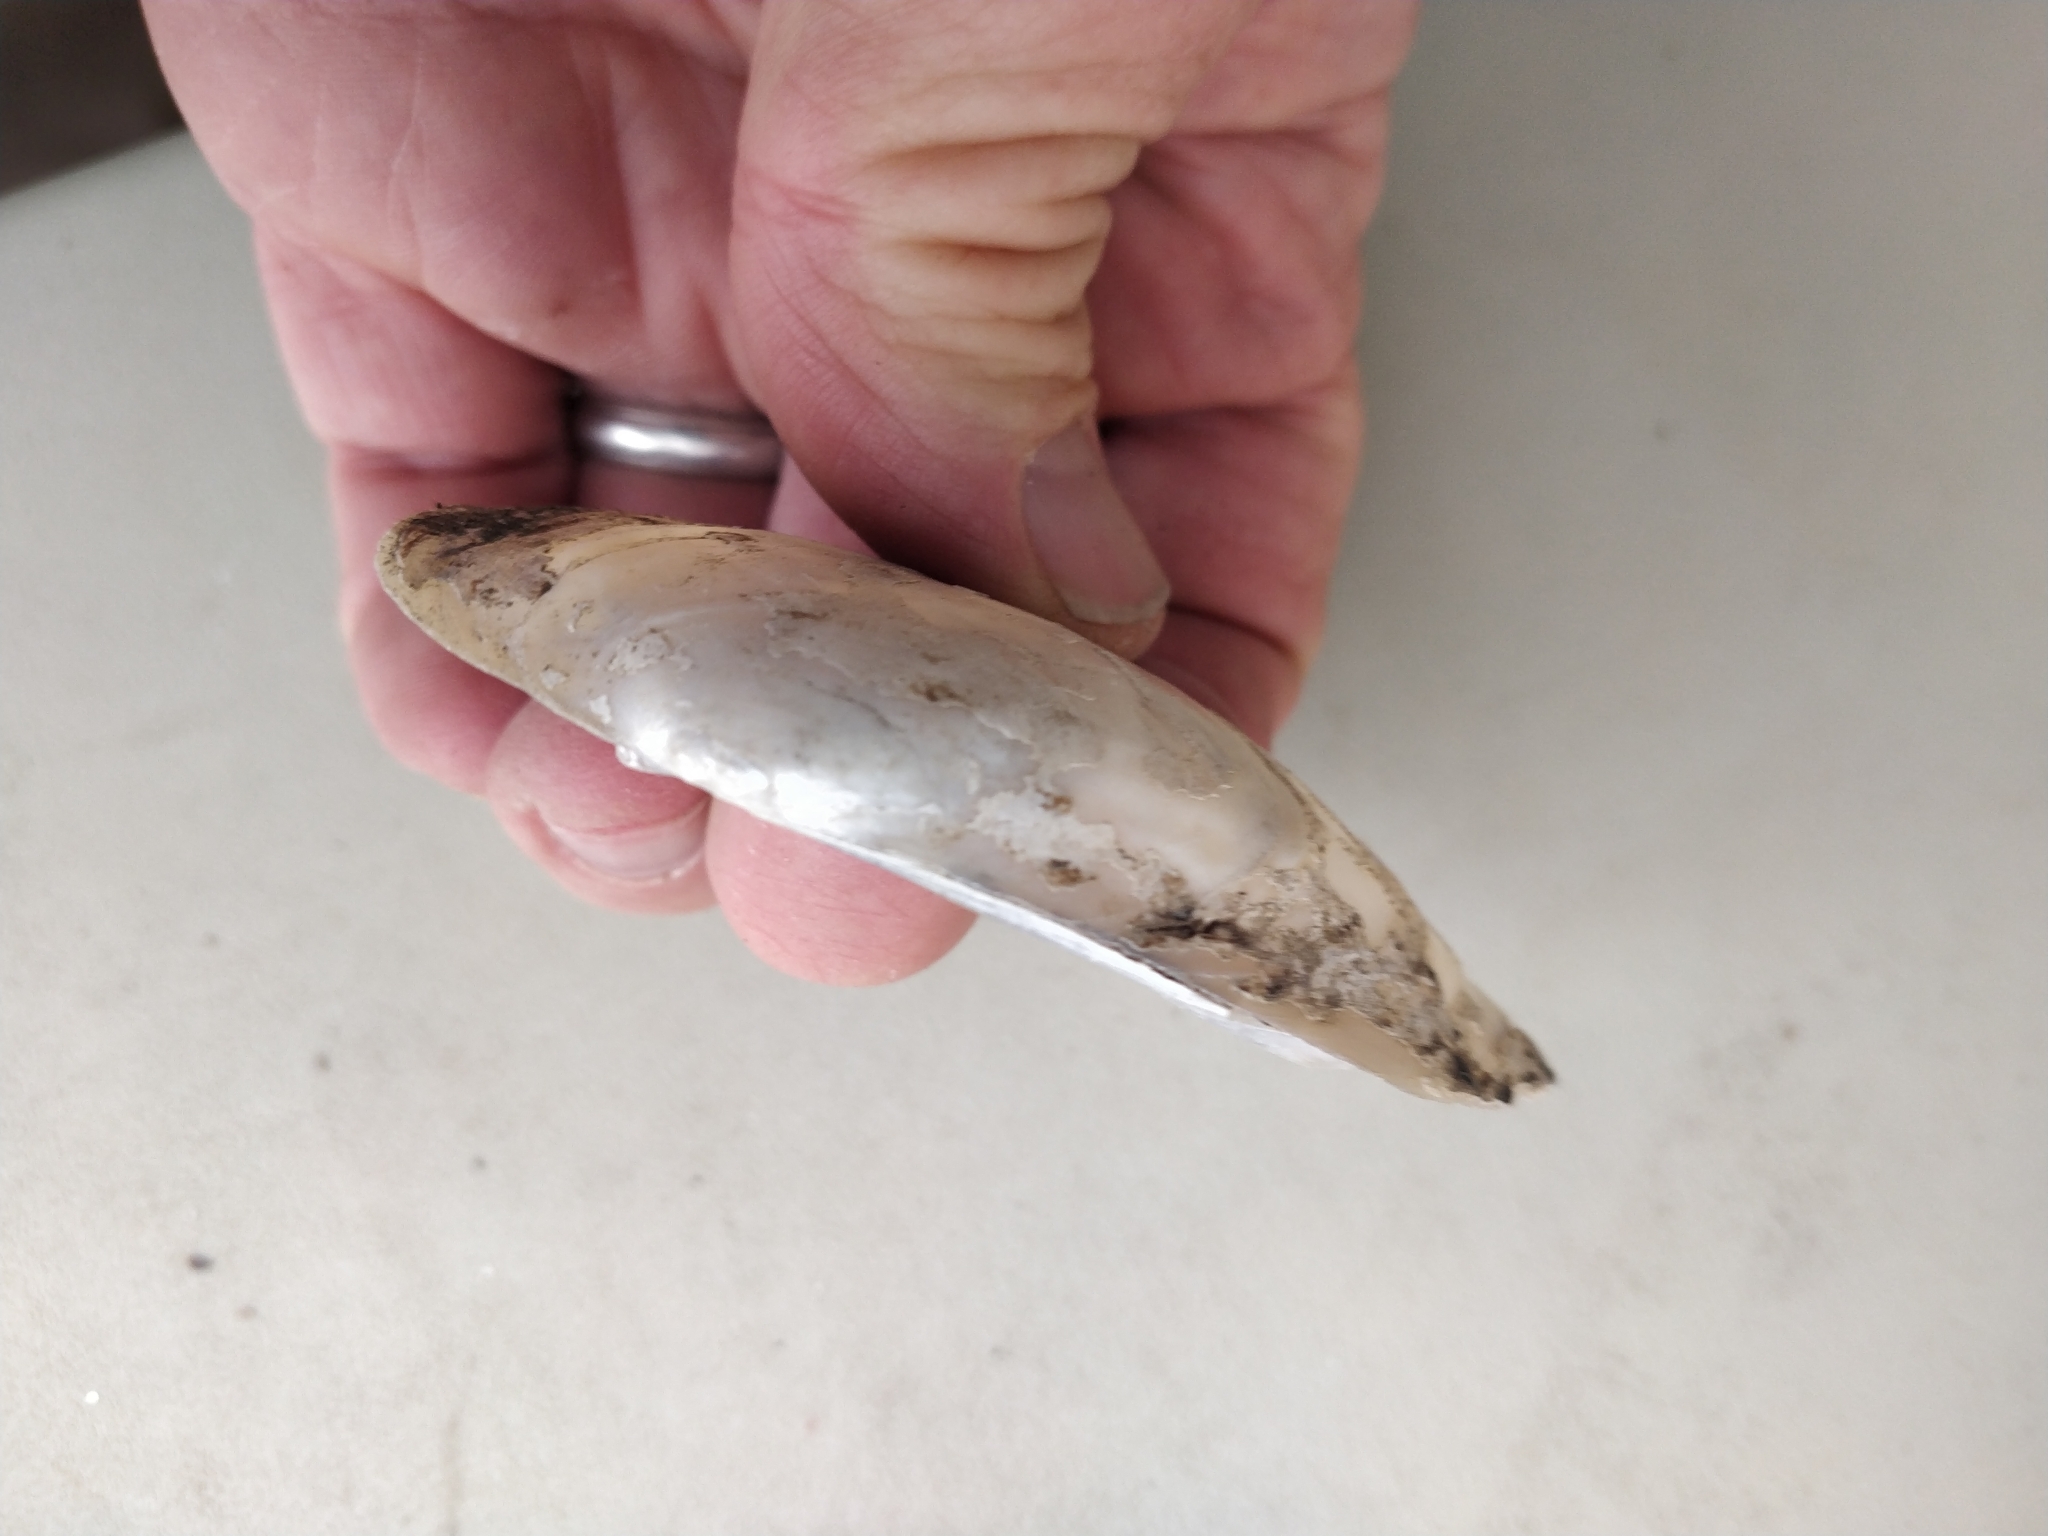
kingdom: Animalia
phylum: Mollusca
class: Bivalvia
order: Unionida
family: Unionidae
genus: Potamilus
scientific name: Potamilus fragilis
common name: Fragile papershell
